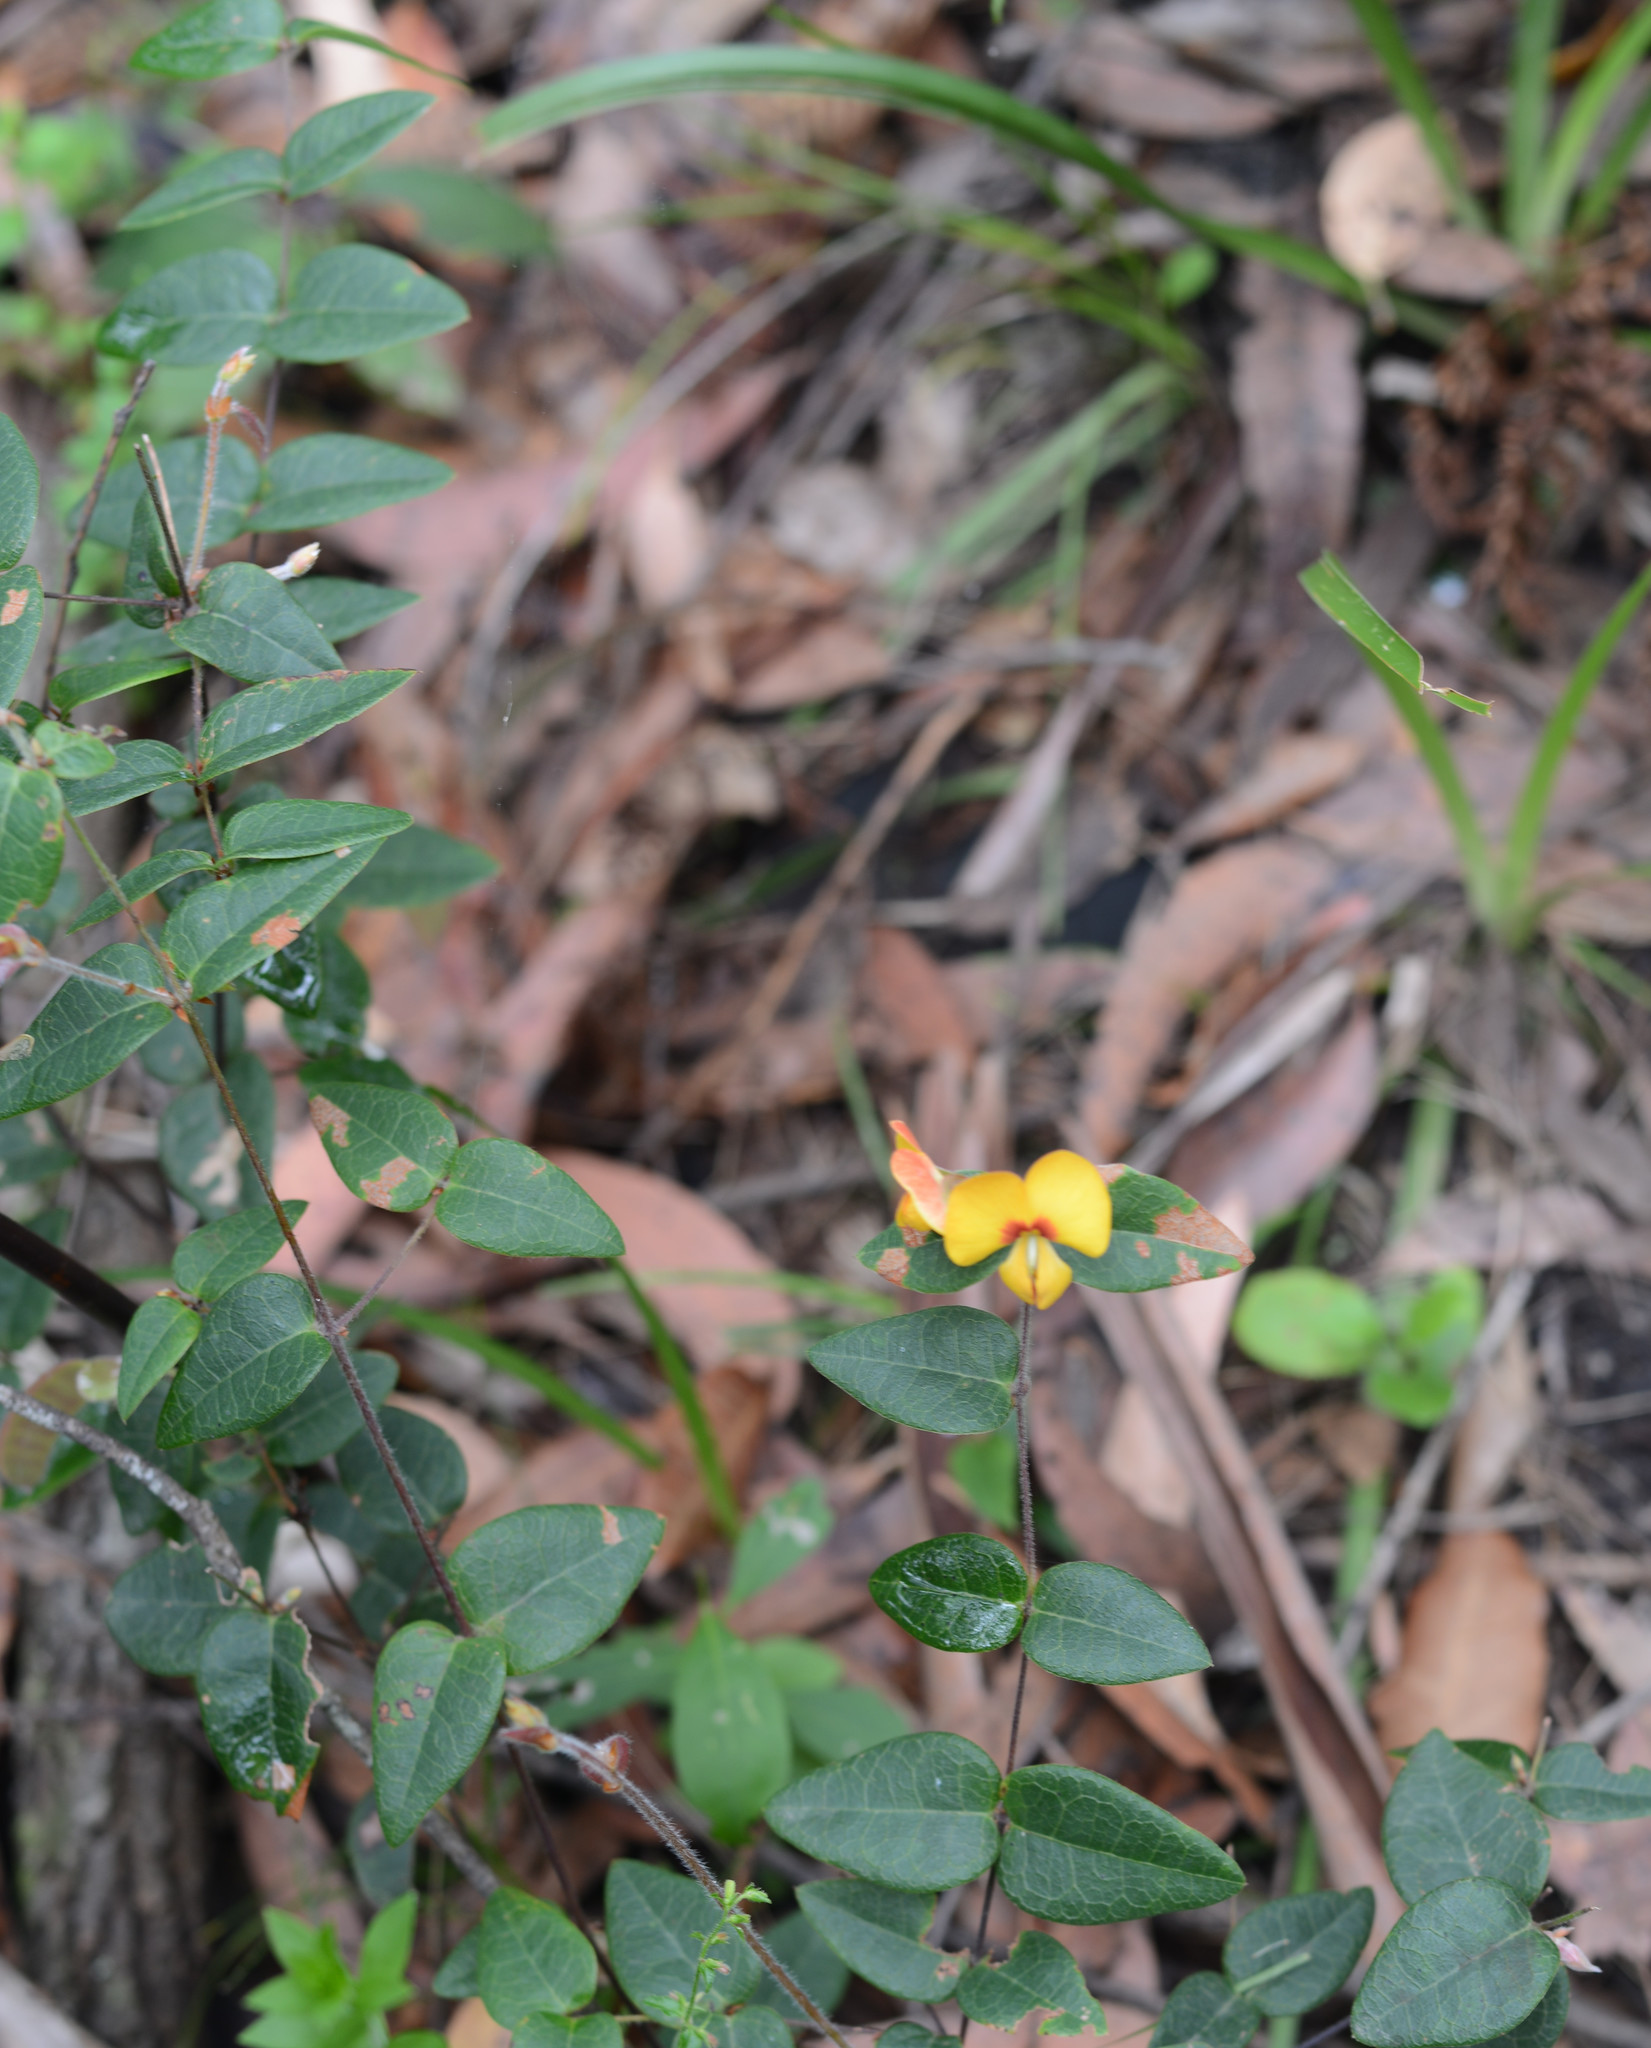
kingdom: Plantae
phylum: Tracheophyta
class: Magnoliopsida
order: Fabales
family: Fabaceae
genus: Platylobium
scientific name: Platylobium formosum
